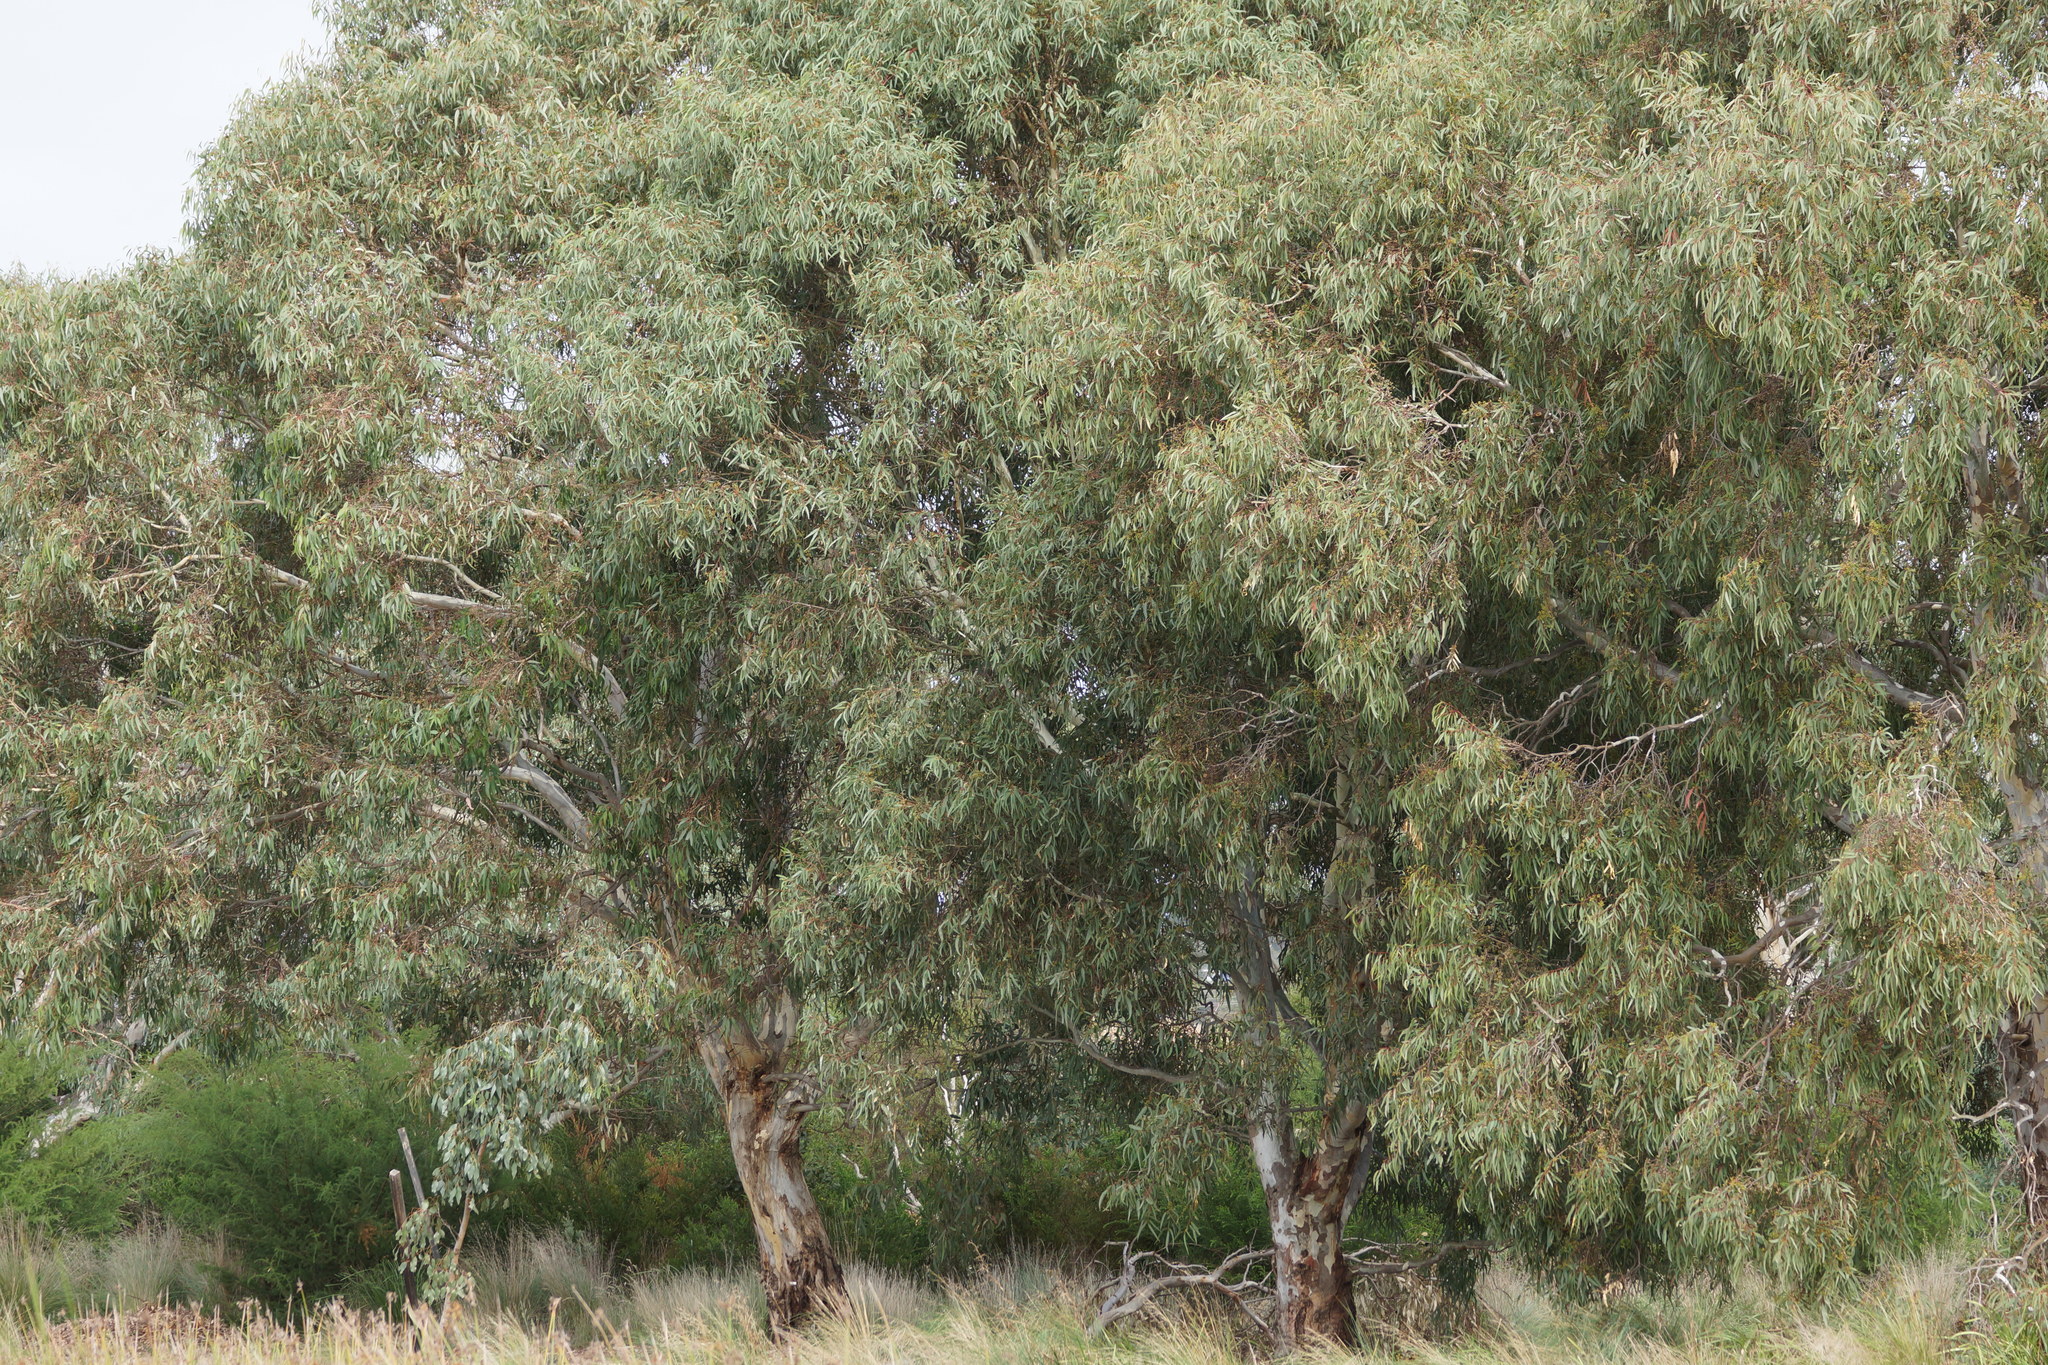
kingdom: Plantae
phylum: Tracheophyta
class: Magnoliopsida
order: Myrtales
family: Myrtaceae
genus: Eucalyptus
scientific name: Eucalyptus camaldulensis
